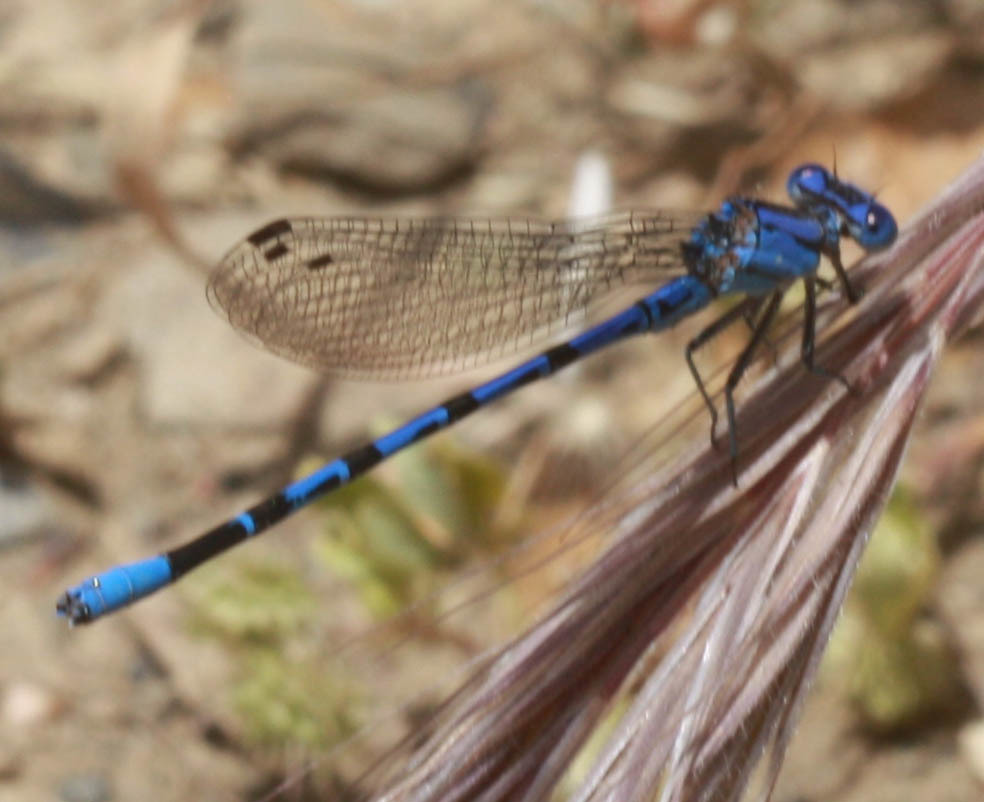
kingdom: Animalia
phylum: Arthropoda
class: Insecta
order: Odonata
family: Coenagrionidae
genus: Argia
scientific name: Argia vivida
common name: Vivid dancer
